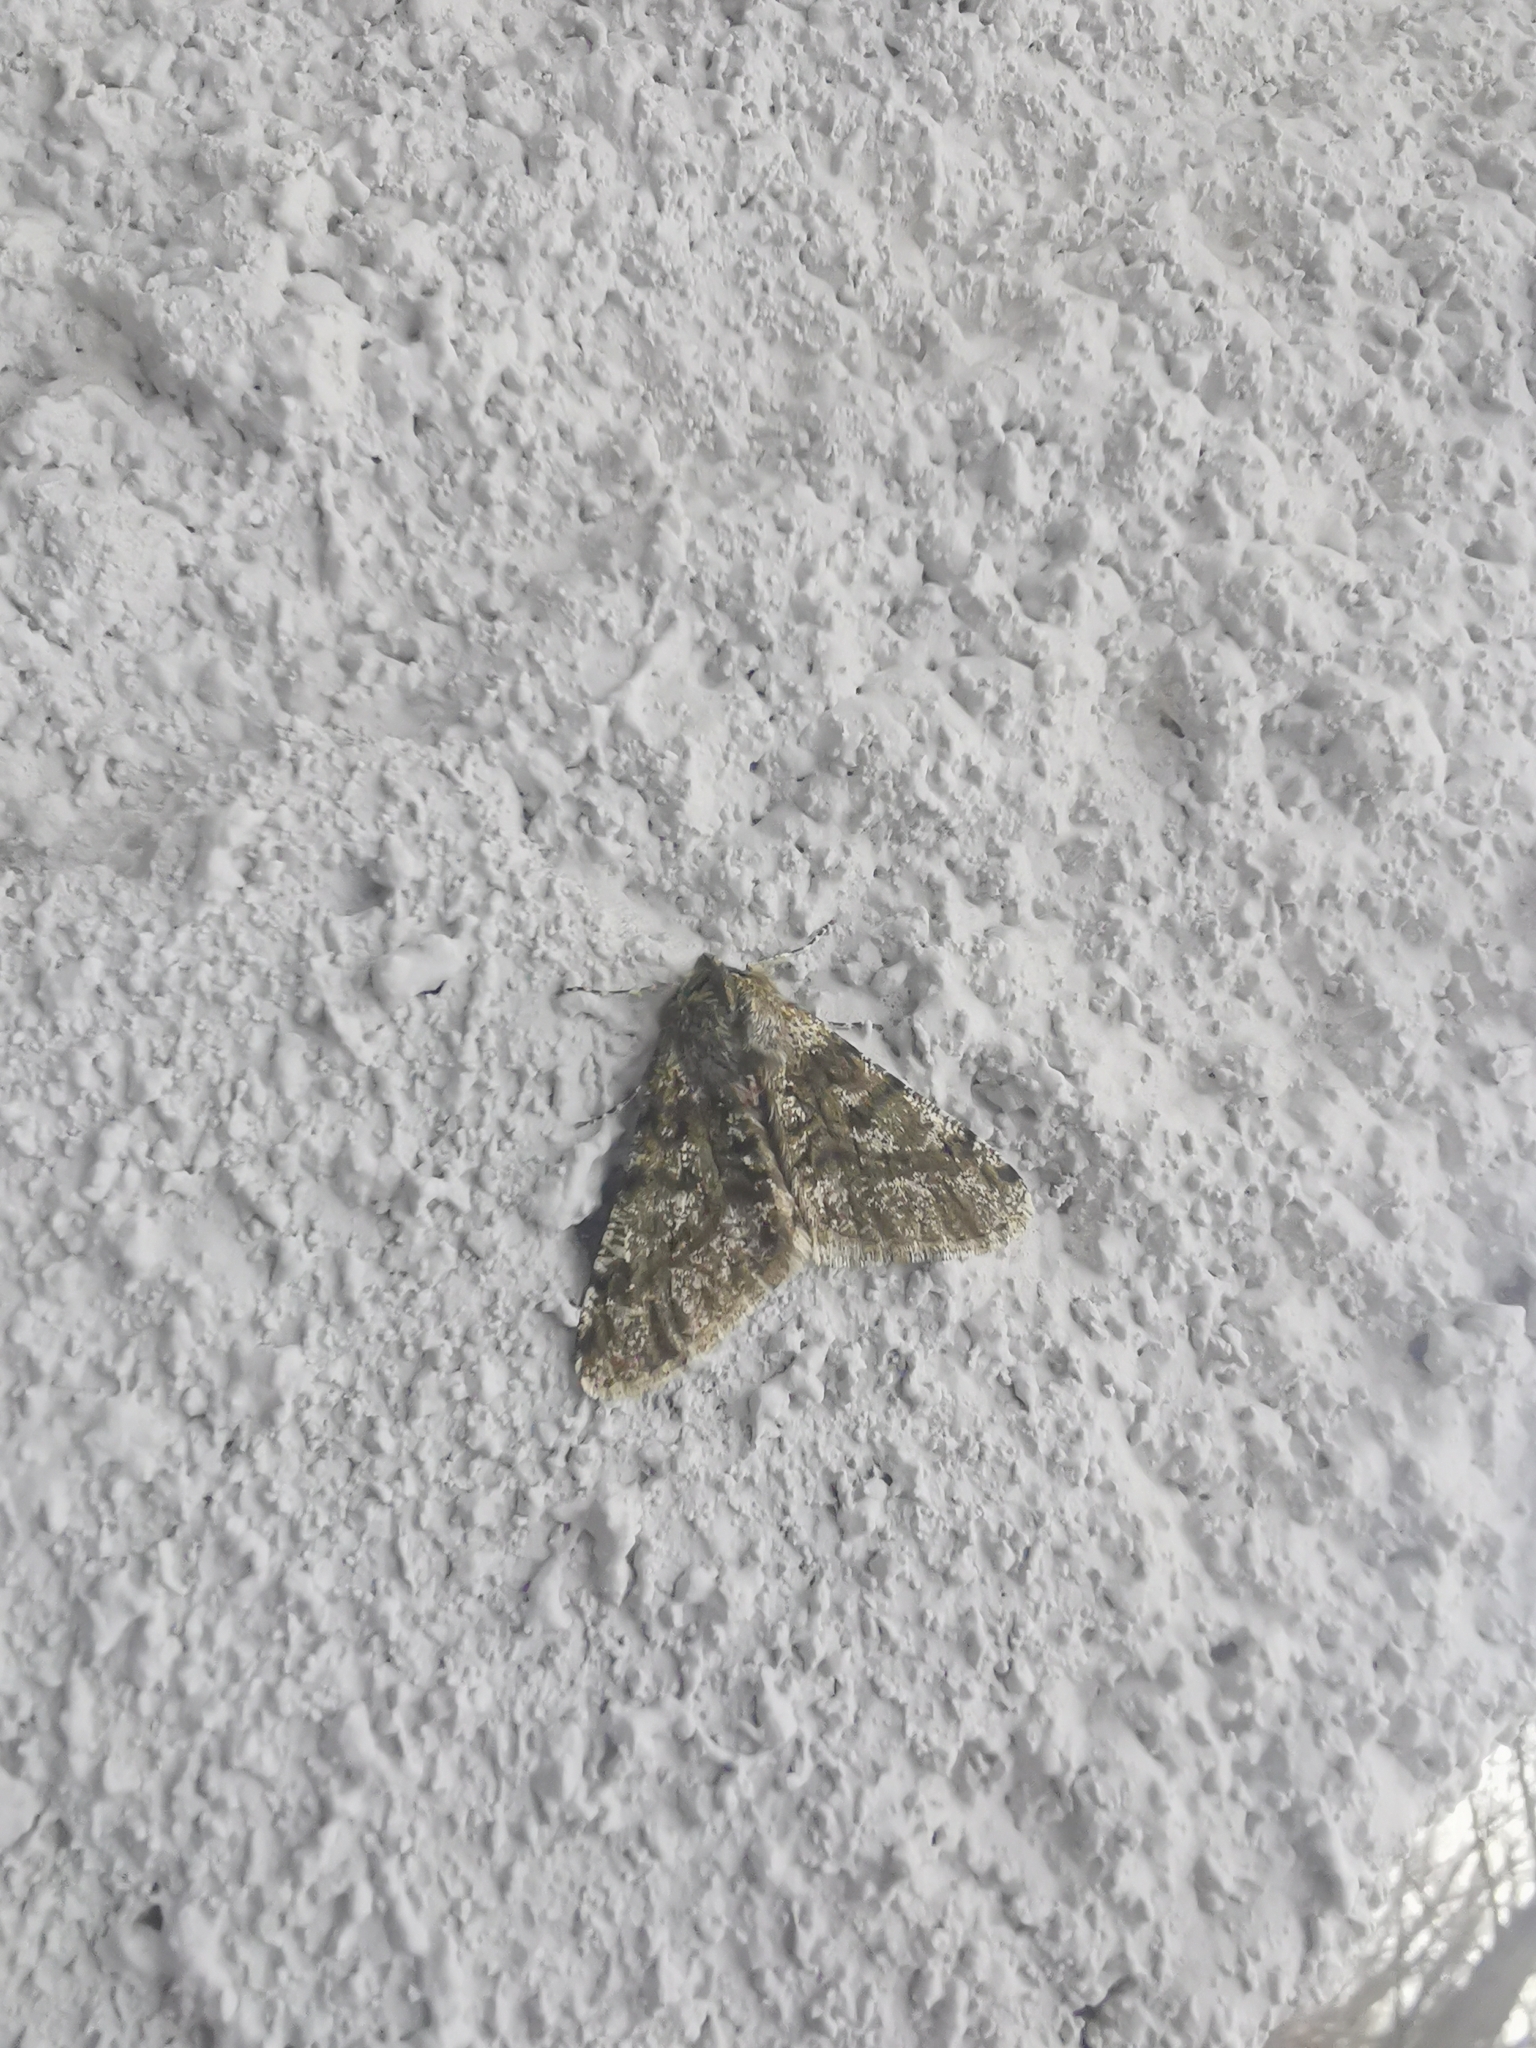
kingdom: Animalia
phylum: Arthropoda
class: Insecta
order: Lepidoptera
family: Geometridae
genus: Phigalia
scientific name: Phigalia pilosaria
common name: Pale brindled beauty
